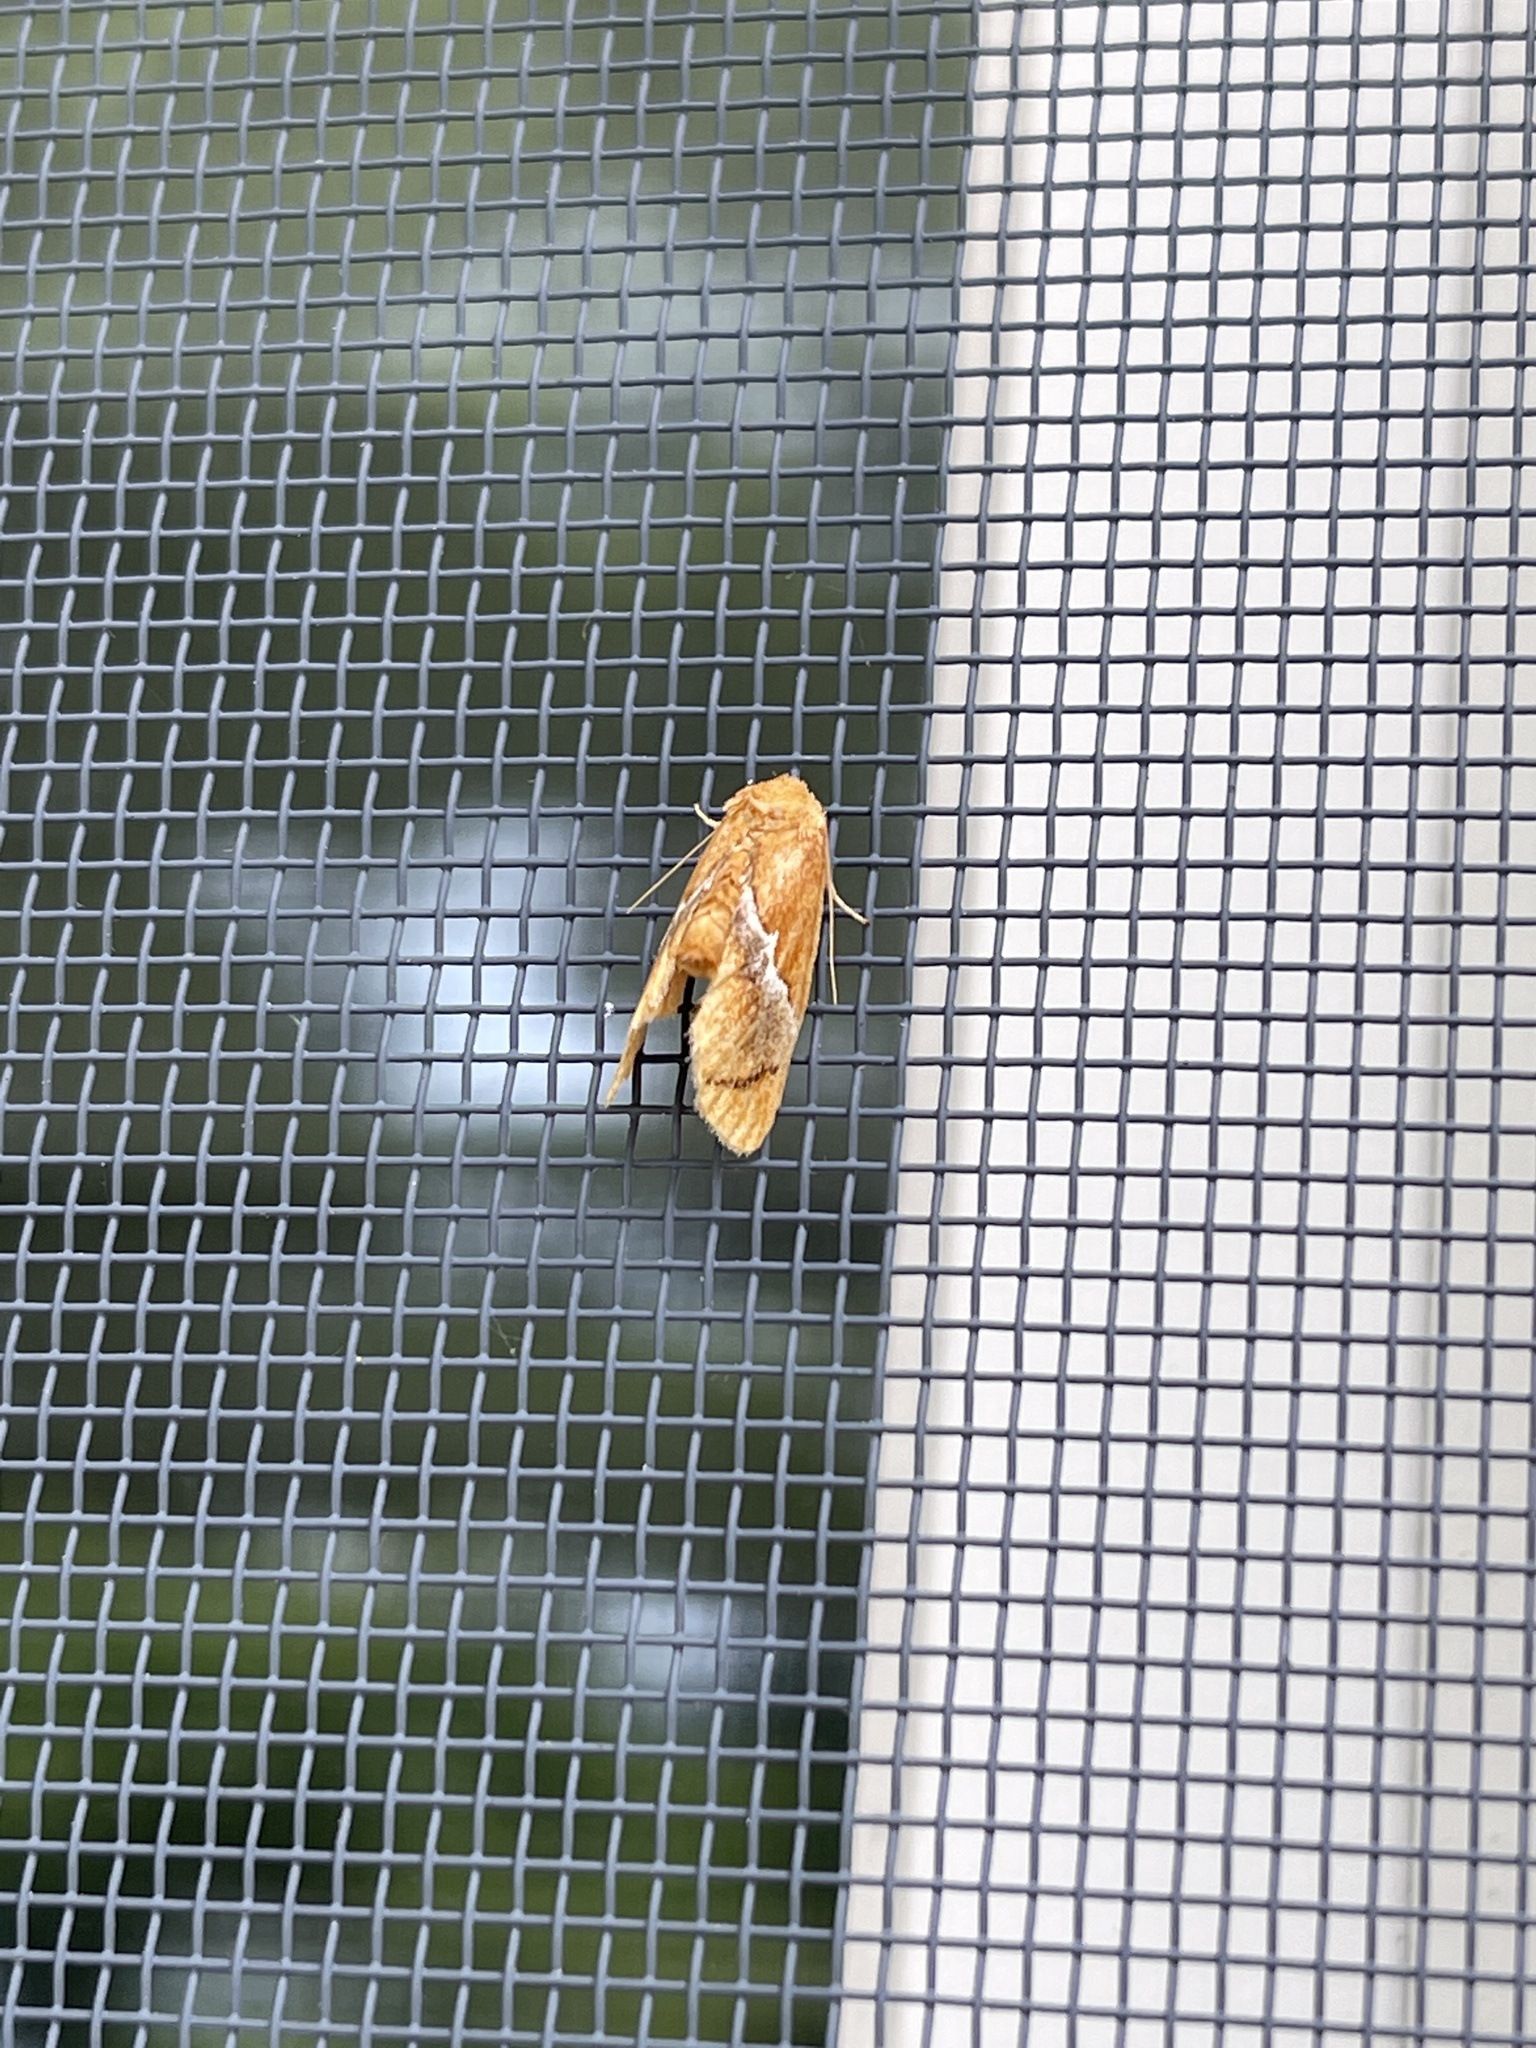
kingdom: Animalia
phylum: Arthropoda
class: Insecta
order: Lepidoptera
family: Limacodidae
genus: Lithacodes
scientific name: Lithacodes fasciola
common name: Yellow-shouldered slug moth
